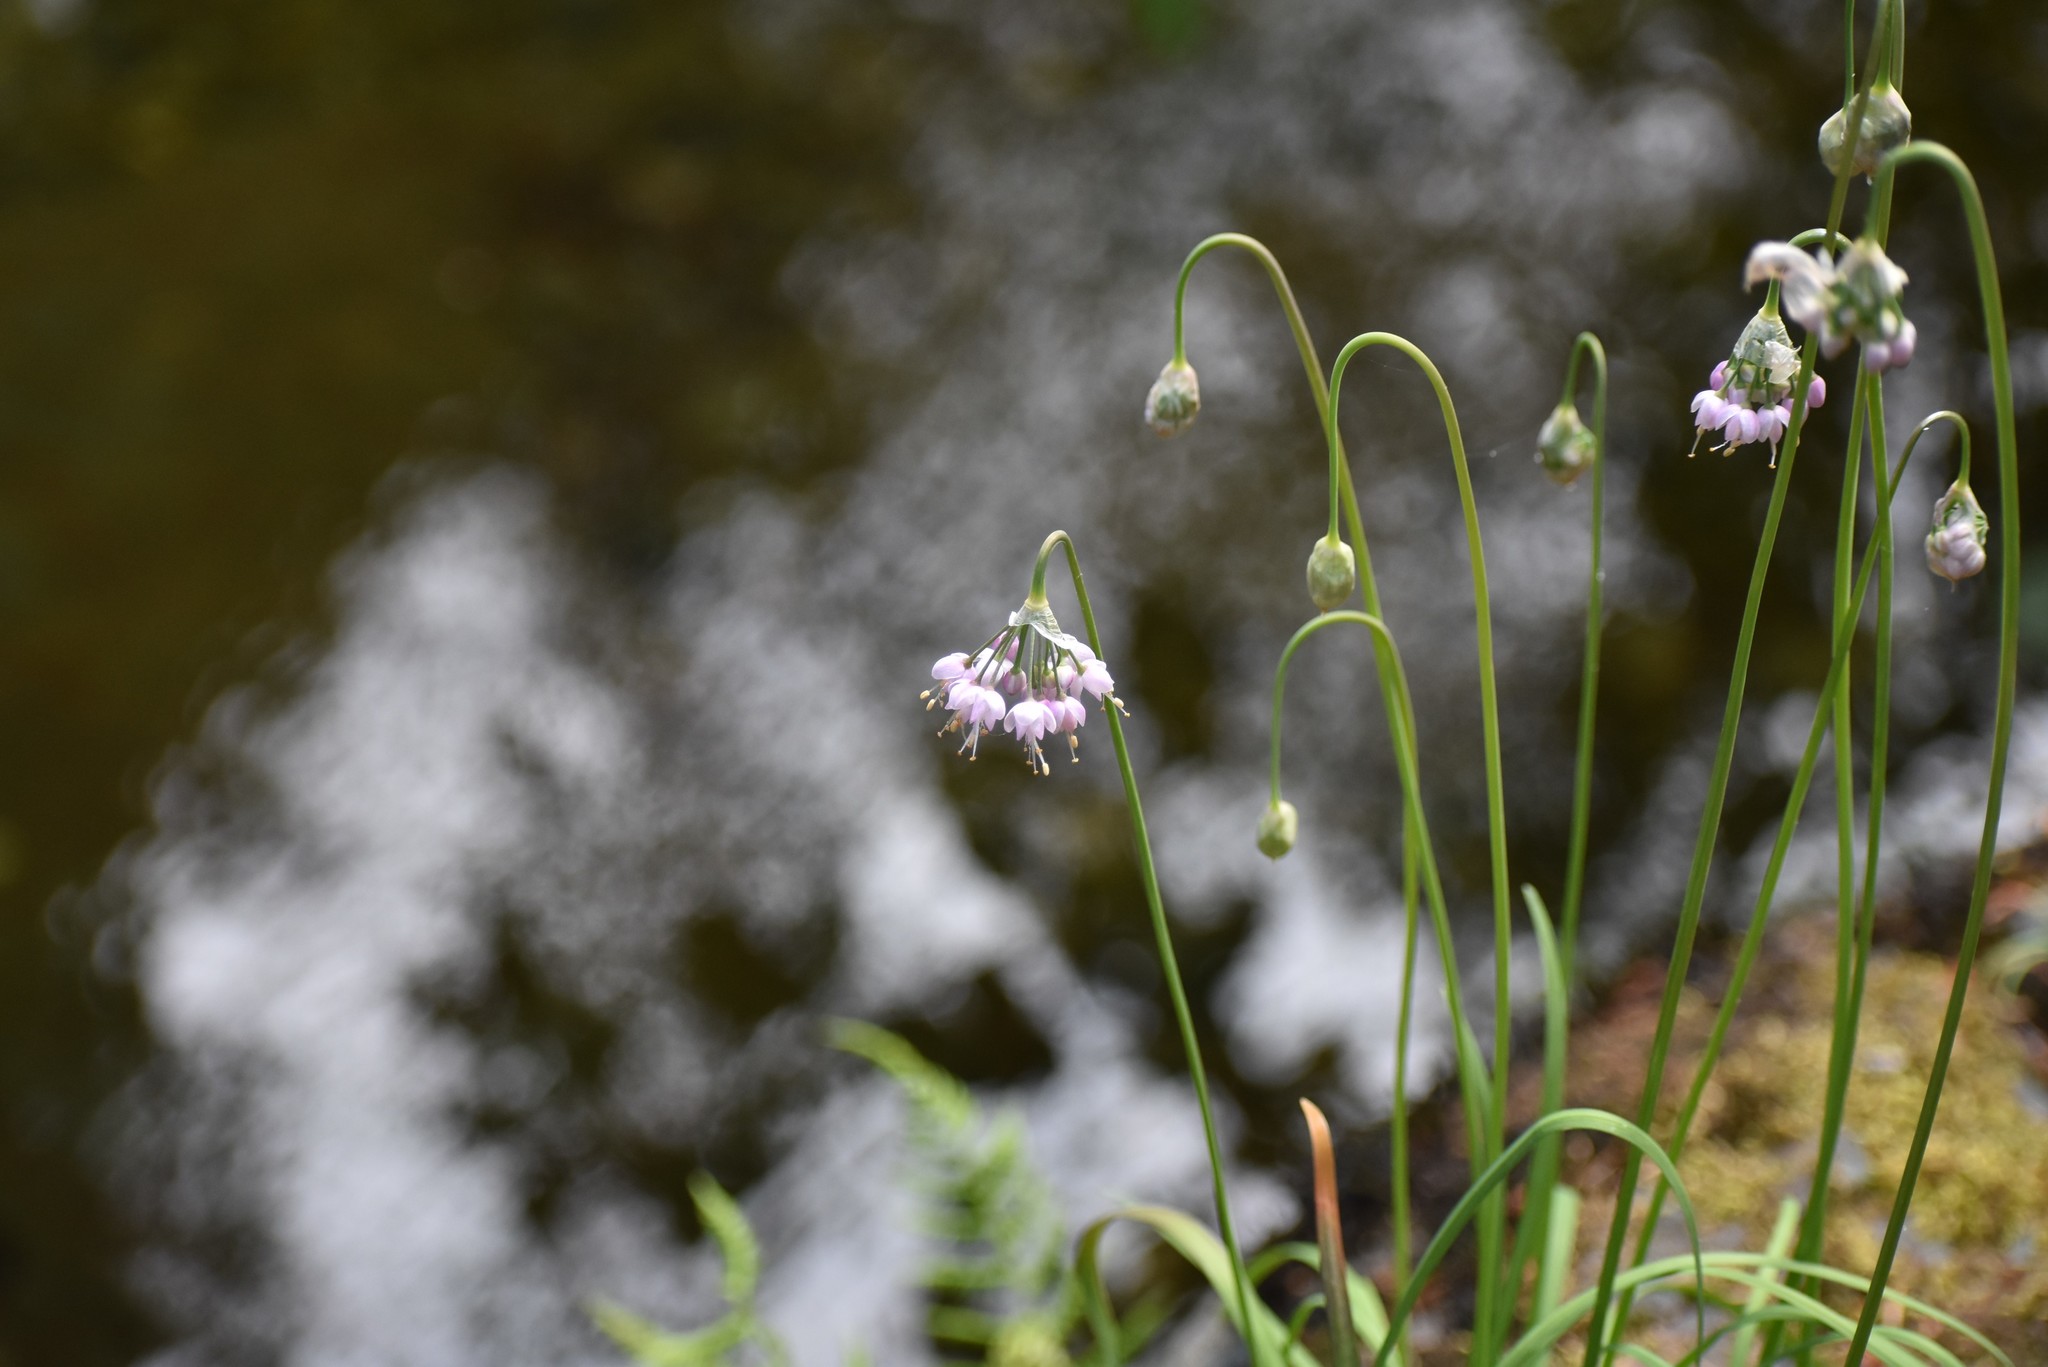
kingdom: Plantae
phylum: Tracheophyta
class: Liliopsida
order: Asparagales
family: Amaryllidaceae
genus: Allium
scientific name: Allium cernuum
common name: Nodding onion
